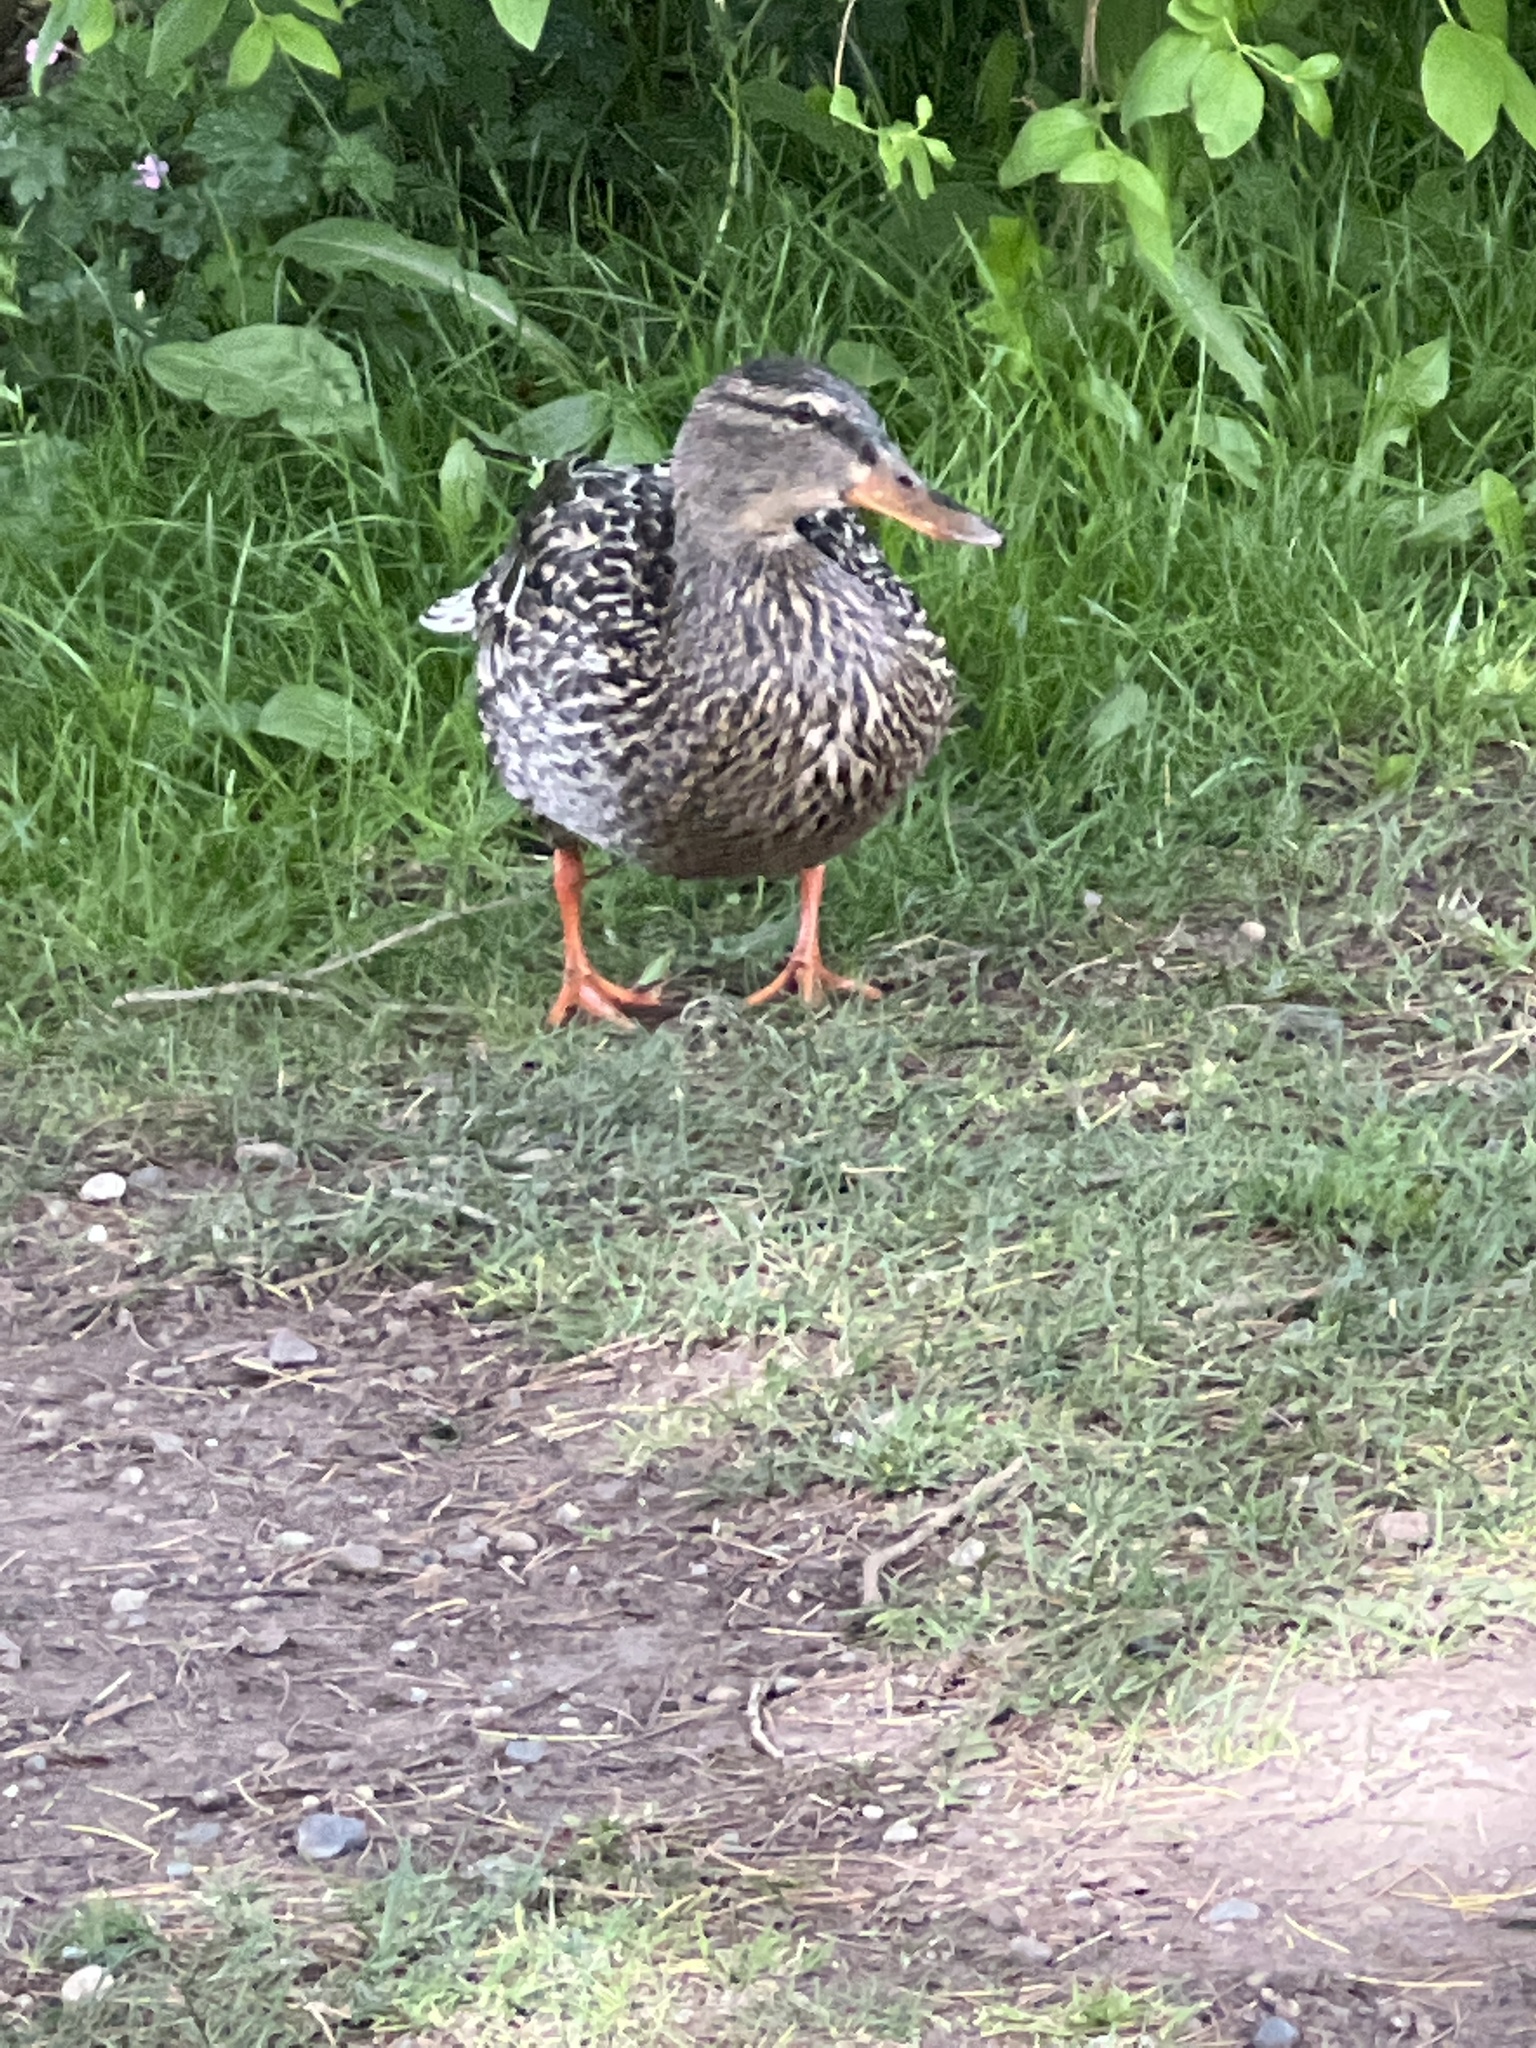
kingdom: Animalia
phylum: Chordata
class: Aves
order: Anseriformes
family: Anatidae
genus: Anas
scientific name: Anas platyrhynchos
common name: Mallard
